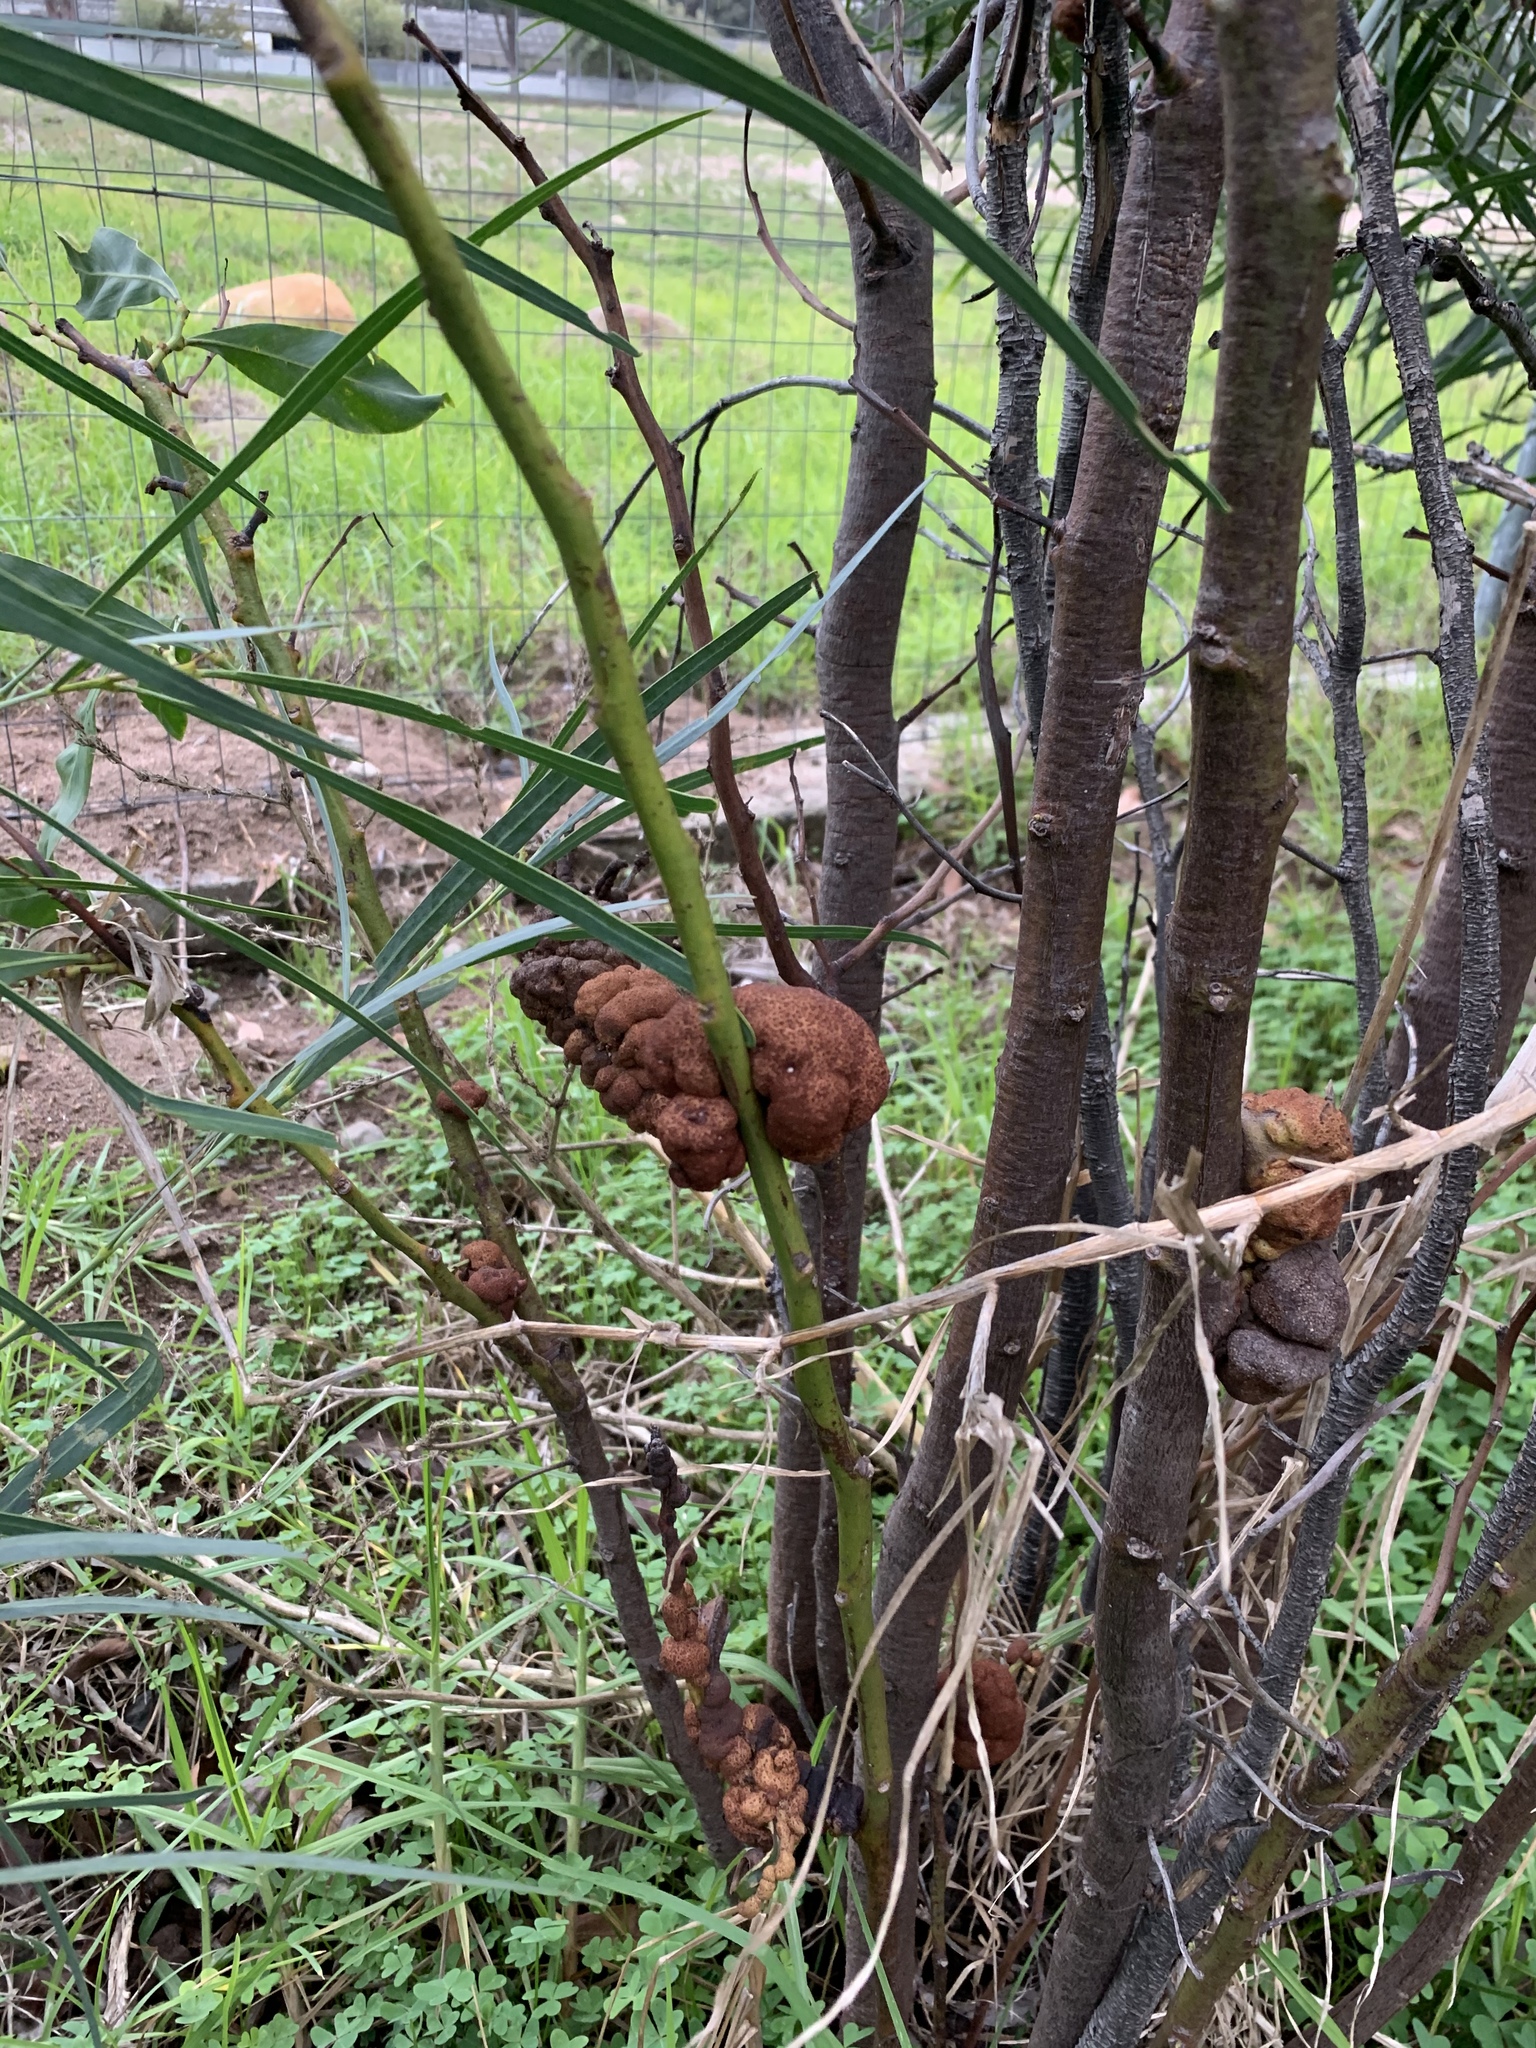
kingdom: Fungi
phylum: Basidiomycota
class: Pucciniomycetes
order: Pucciniales
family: Uromycladiaceae
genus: Uromycladium
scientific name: Uromycladium morrisii
